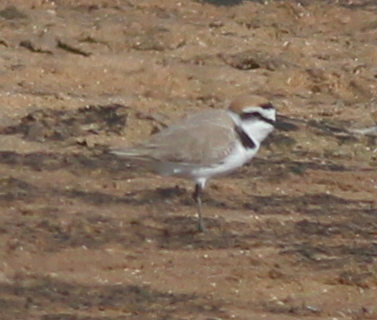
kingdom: Animalia
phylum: Chordata
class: Aves
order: Charadriiformes
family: Charadriidae
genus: Charadrius
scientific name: Charadrius alexandrinus
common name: Kentish plover
